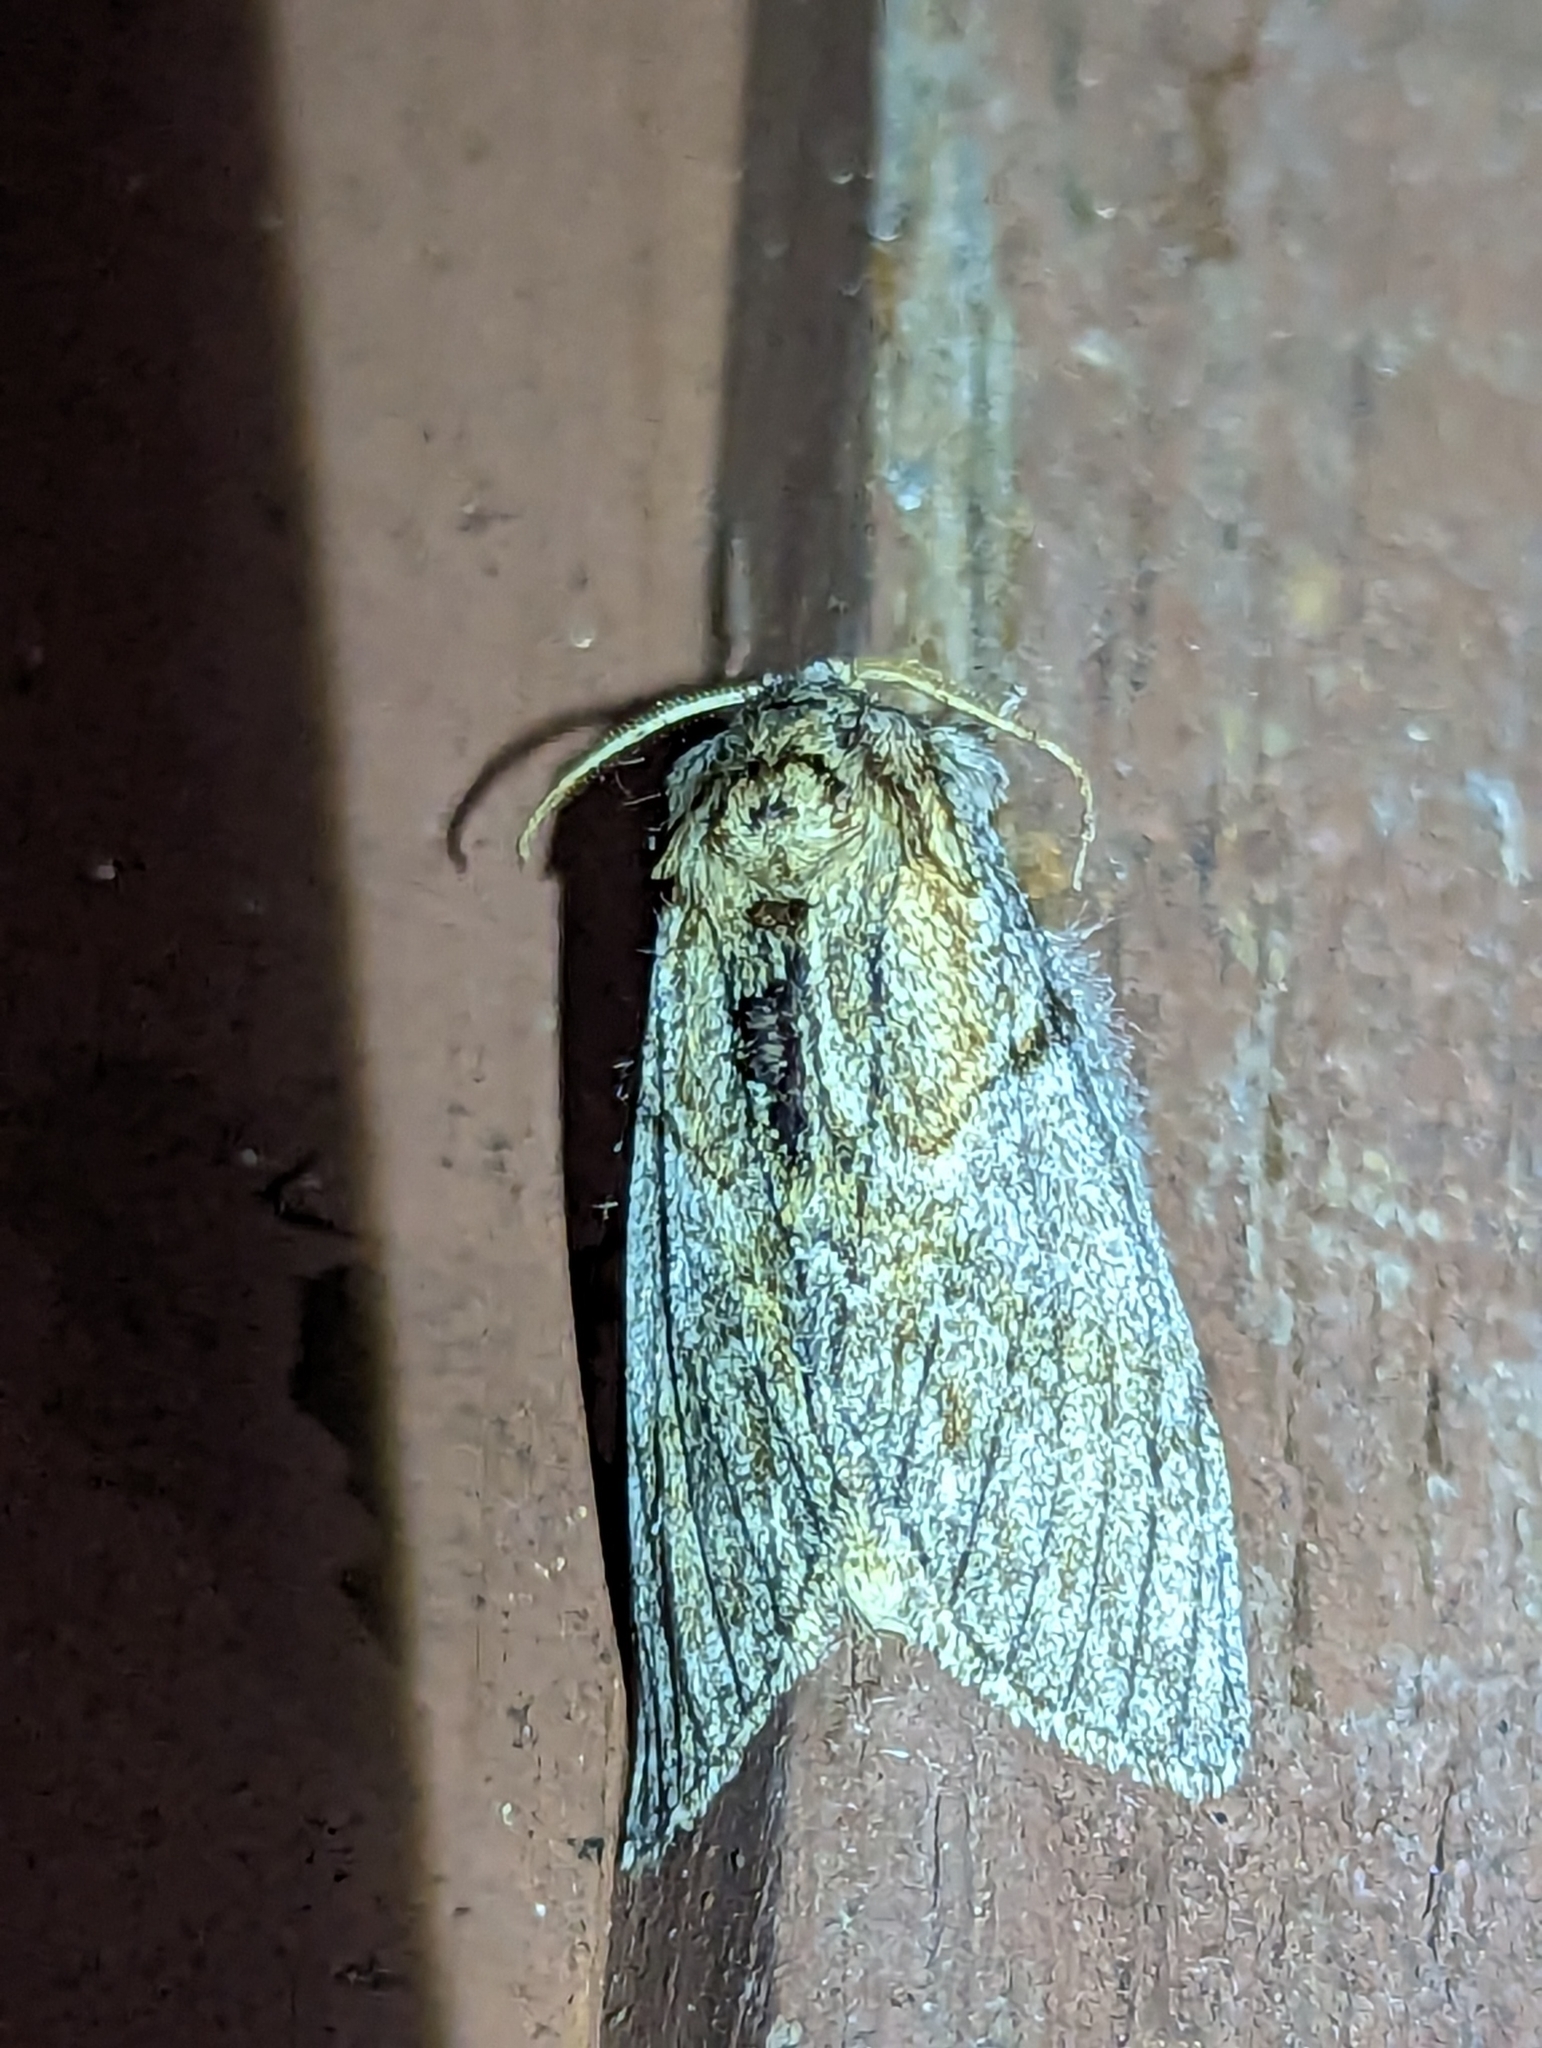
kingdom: Animalia
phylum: Arthropoda
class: Insecta
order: Lepidoptera
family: Notodontidae
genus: Peridea
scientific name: Peridea basitriens
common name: Oval-based prominent
